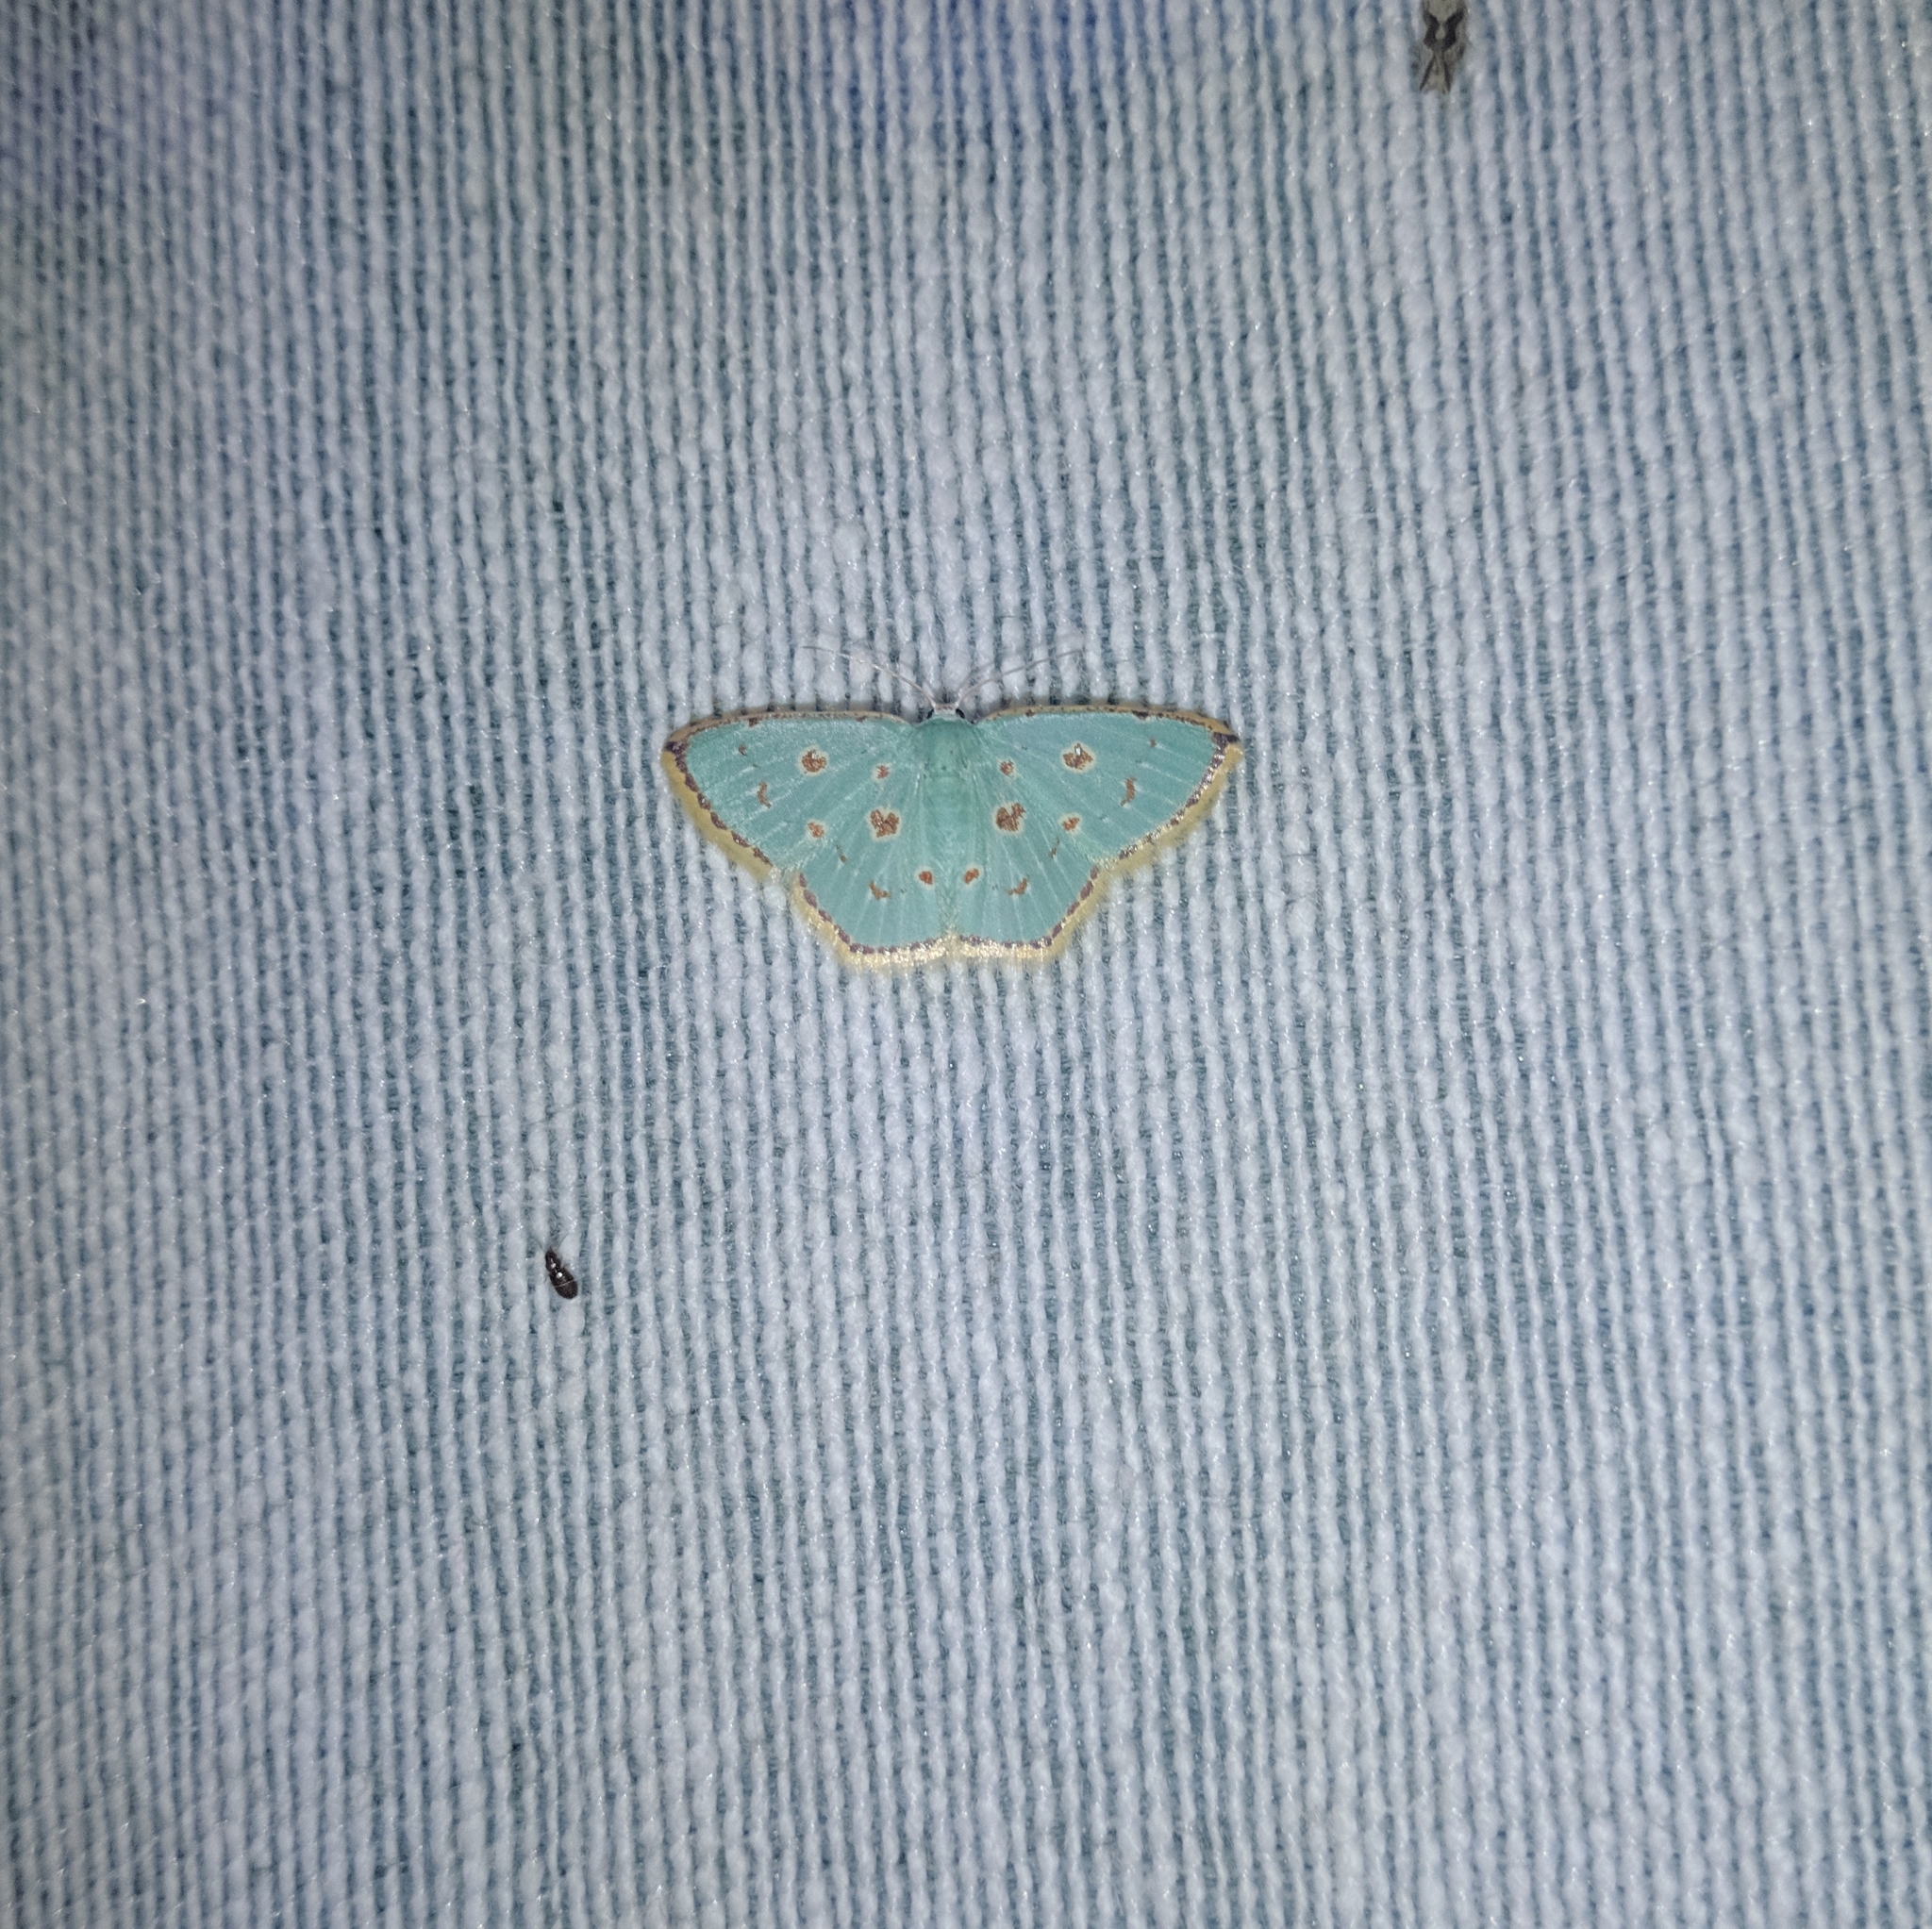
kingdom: Animalia
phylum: Arthropoda
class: Insecta
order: Lepidoptera
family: Geometridae
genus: Comostola
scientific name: Comostola laesaria
